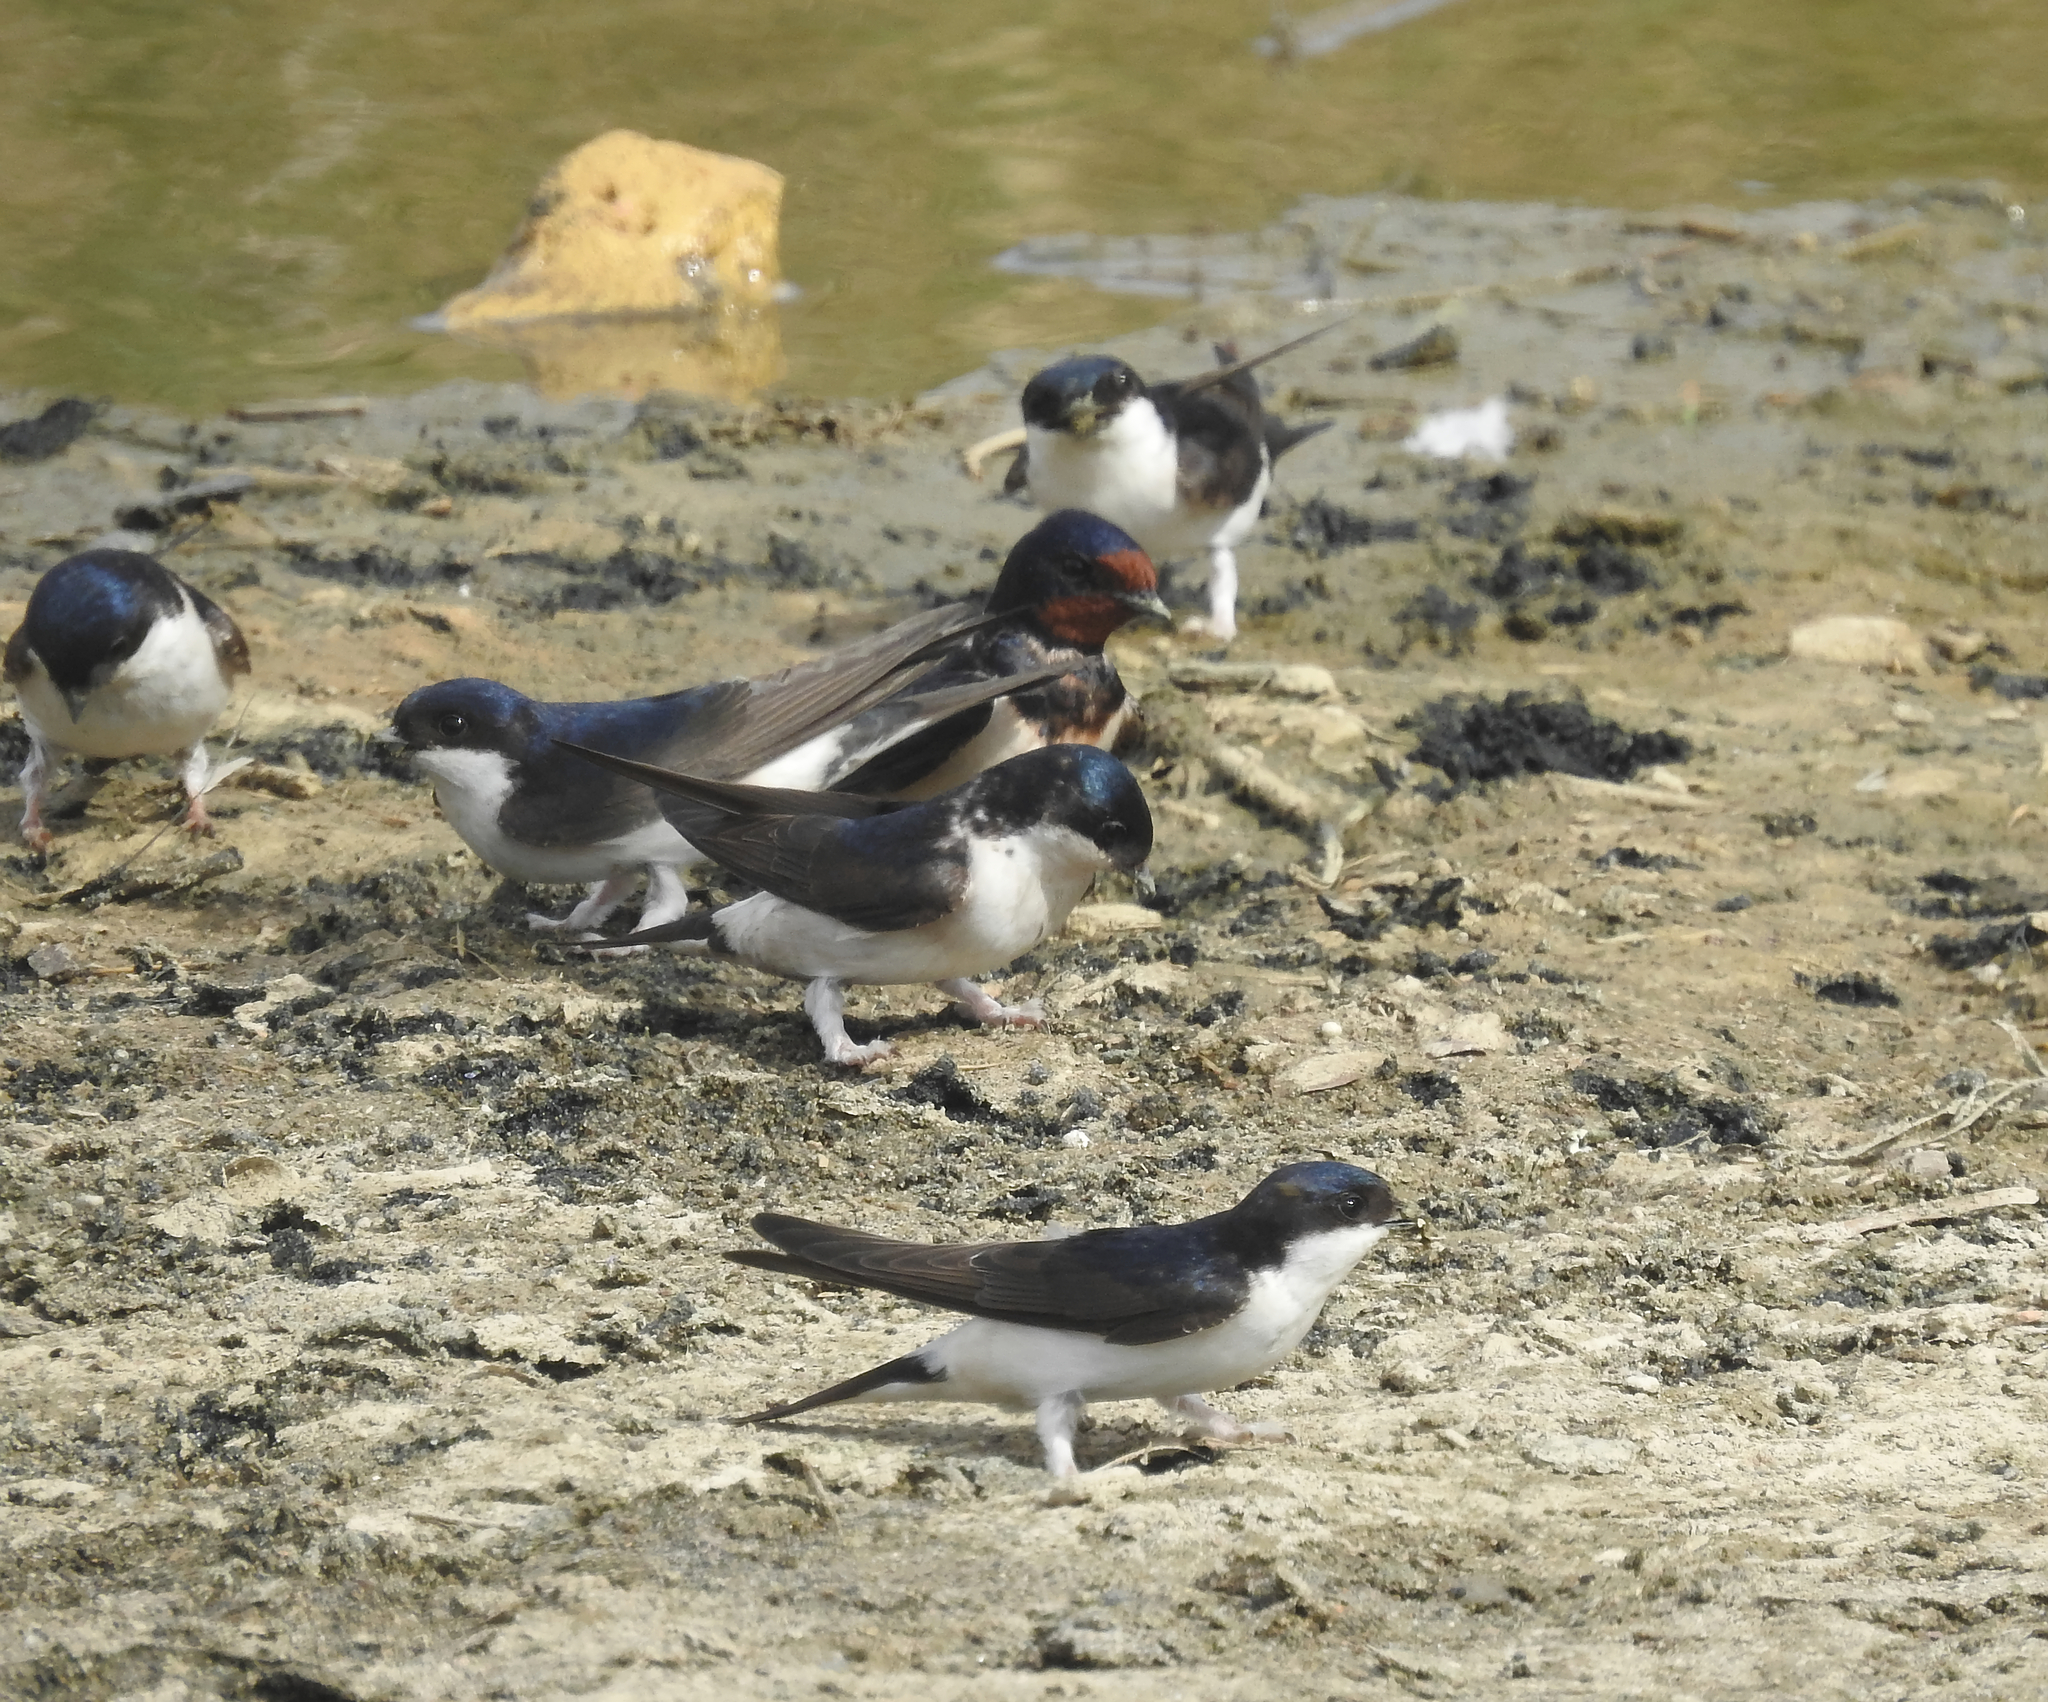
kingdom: Animalia
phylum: Chordata
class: Aves
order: Passeriformes
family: Hirundinidae
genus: Delichon
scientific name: Delichon urbicum
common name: Common house martin
